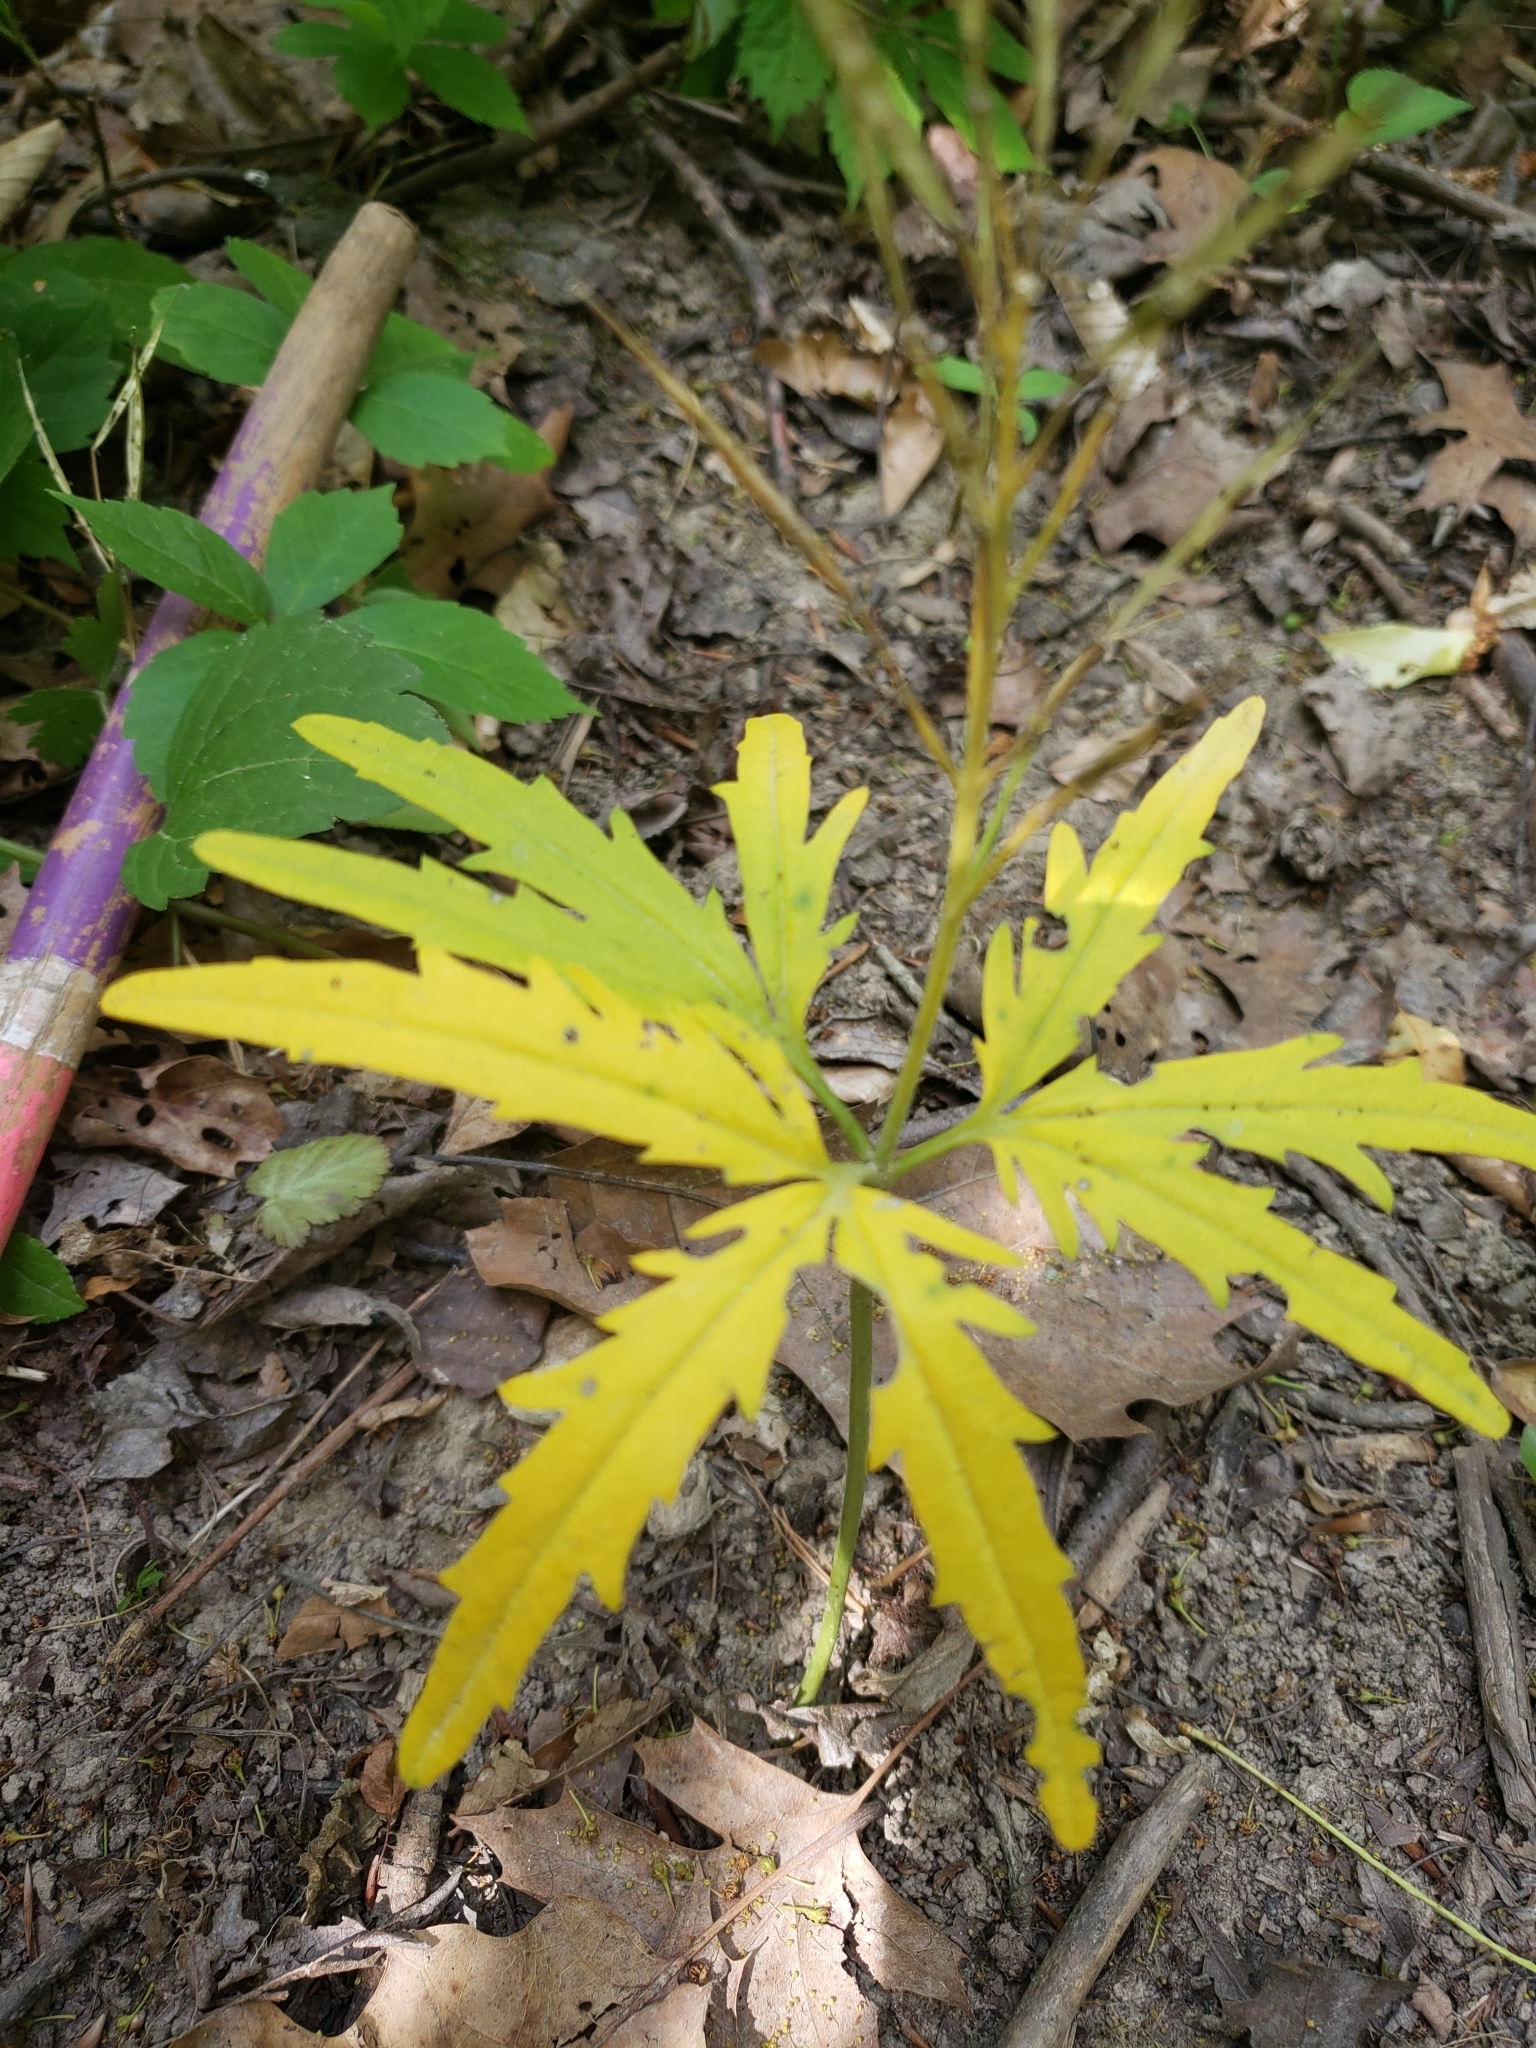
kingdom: Plantae
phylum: Tracheophyta
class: Magnoliopsida
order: Brassicales
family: Brassicaceae
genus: Cardamine
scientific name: Cardamine concatenata
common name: Cut-leaf toothcup
